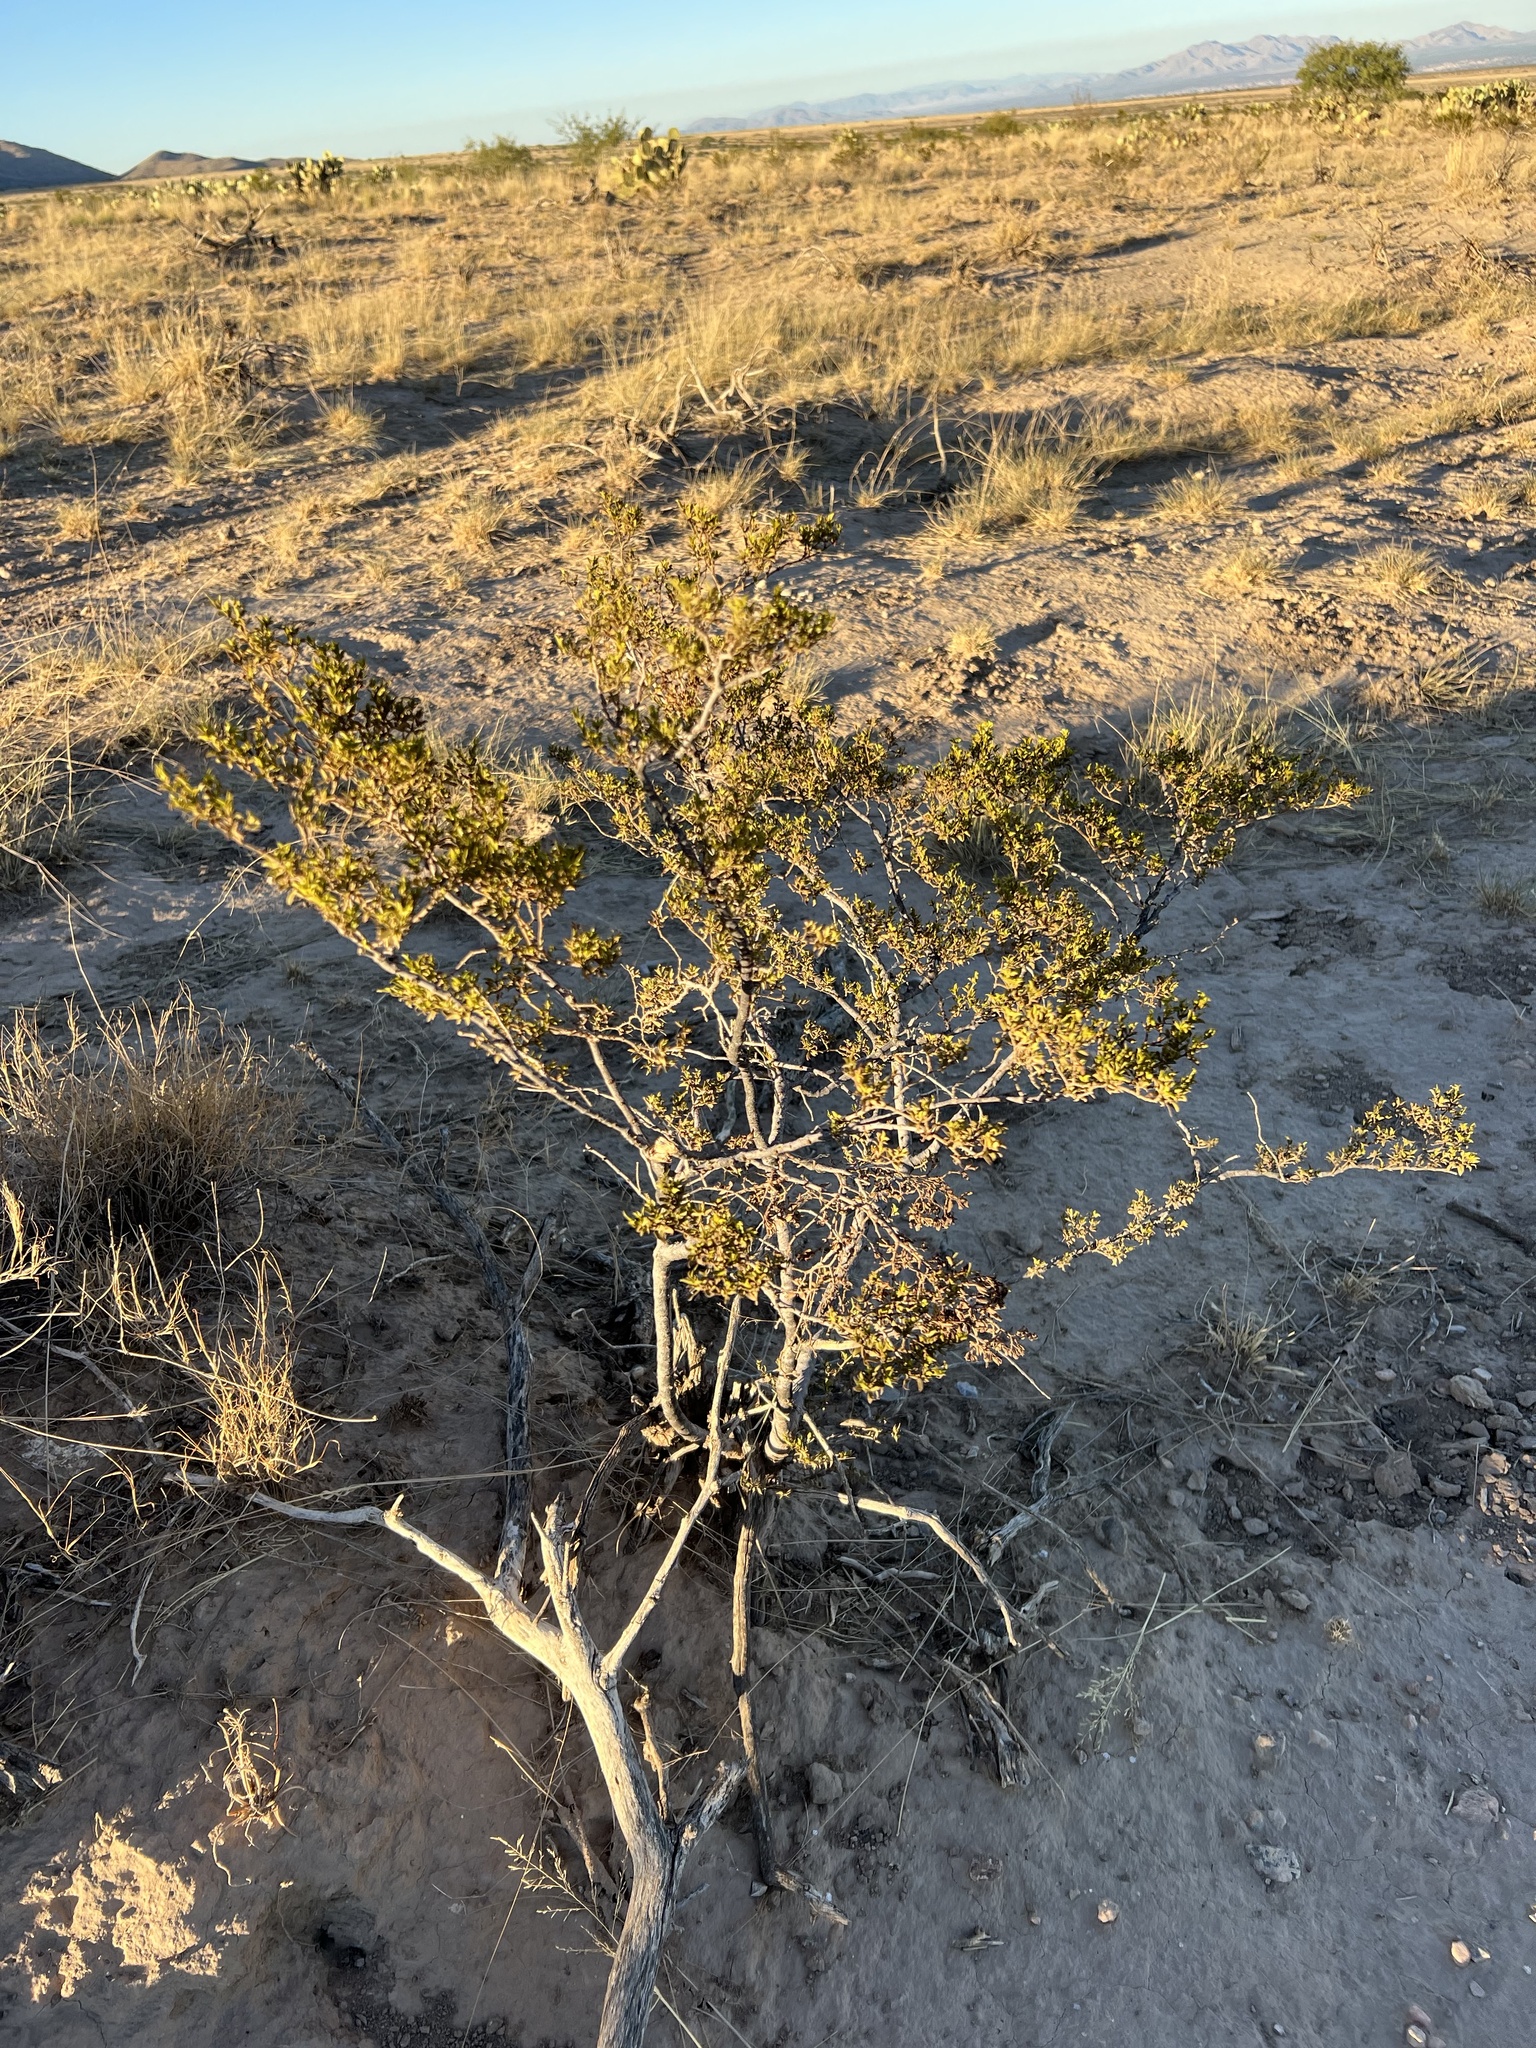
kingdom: Plantae
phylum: Tracheophyta
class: Magnoliopsida
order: Zygophyllales
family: Zygophyllaceae
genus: Larrea
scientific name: Larrea tridentata
